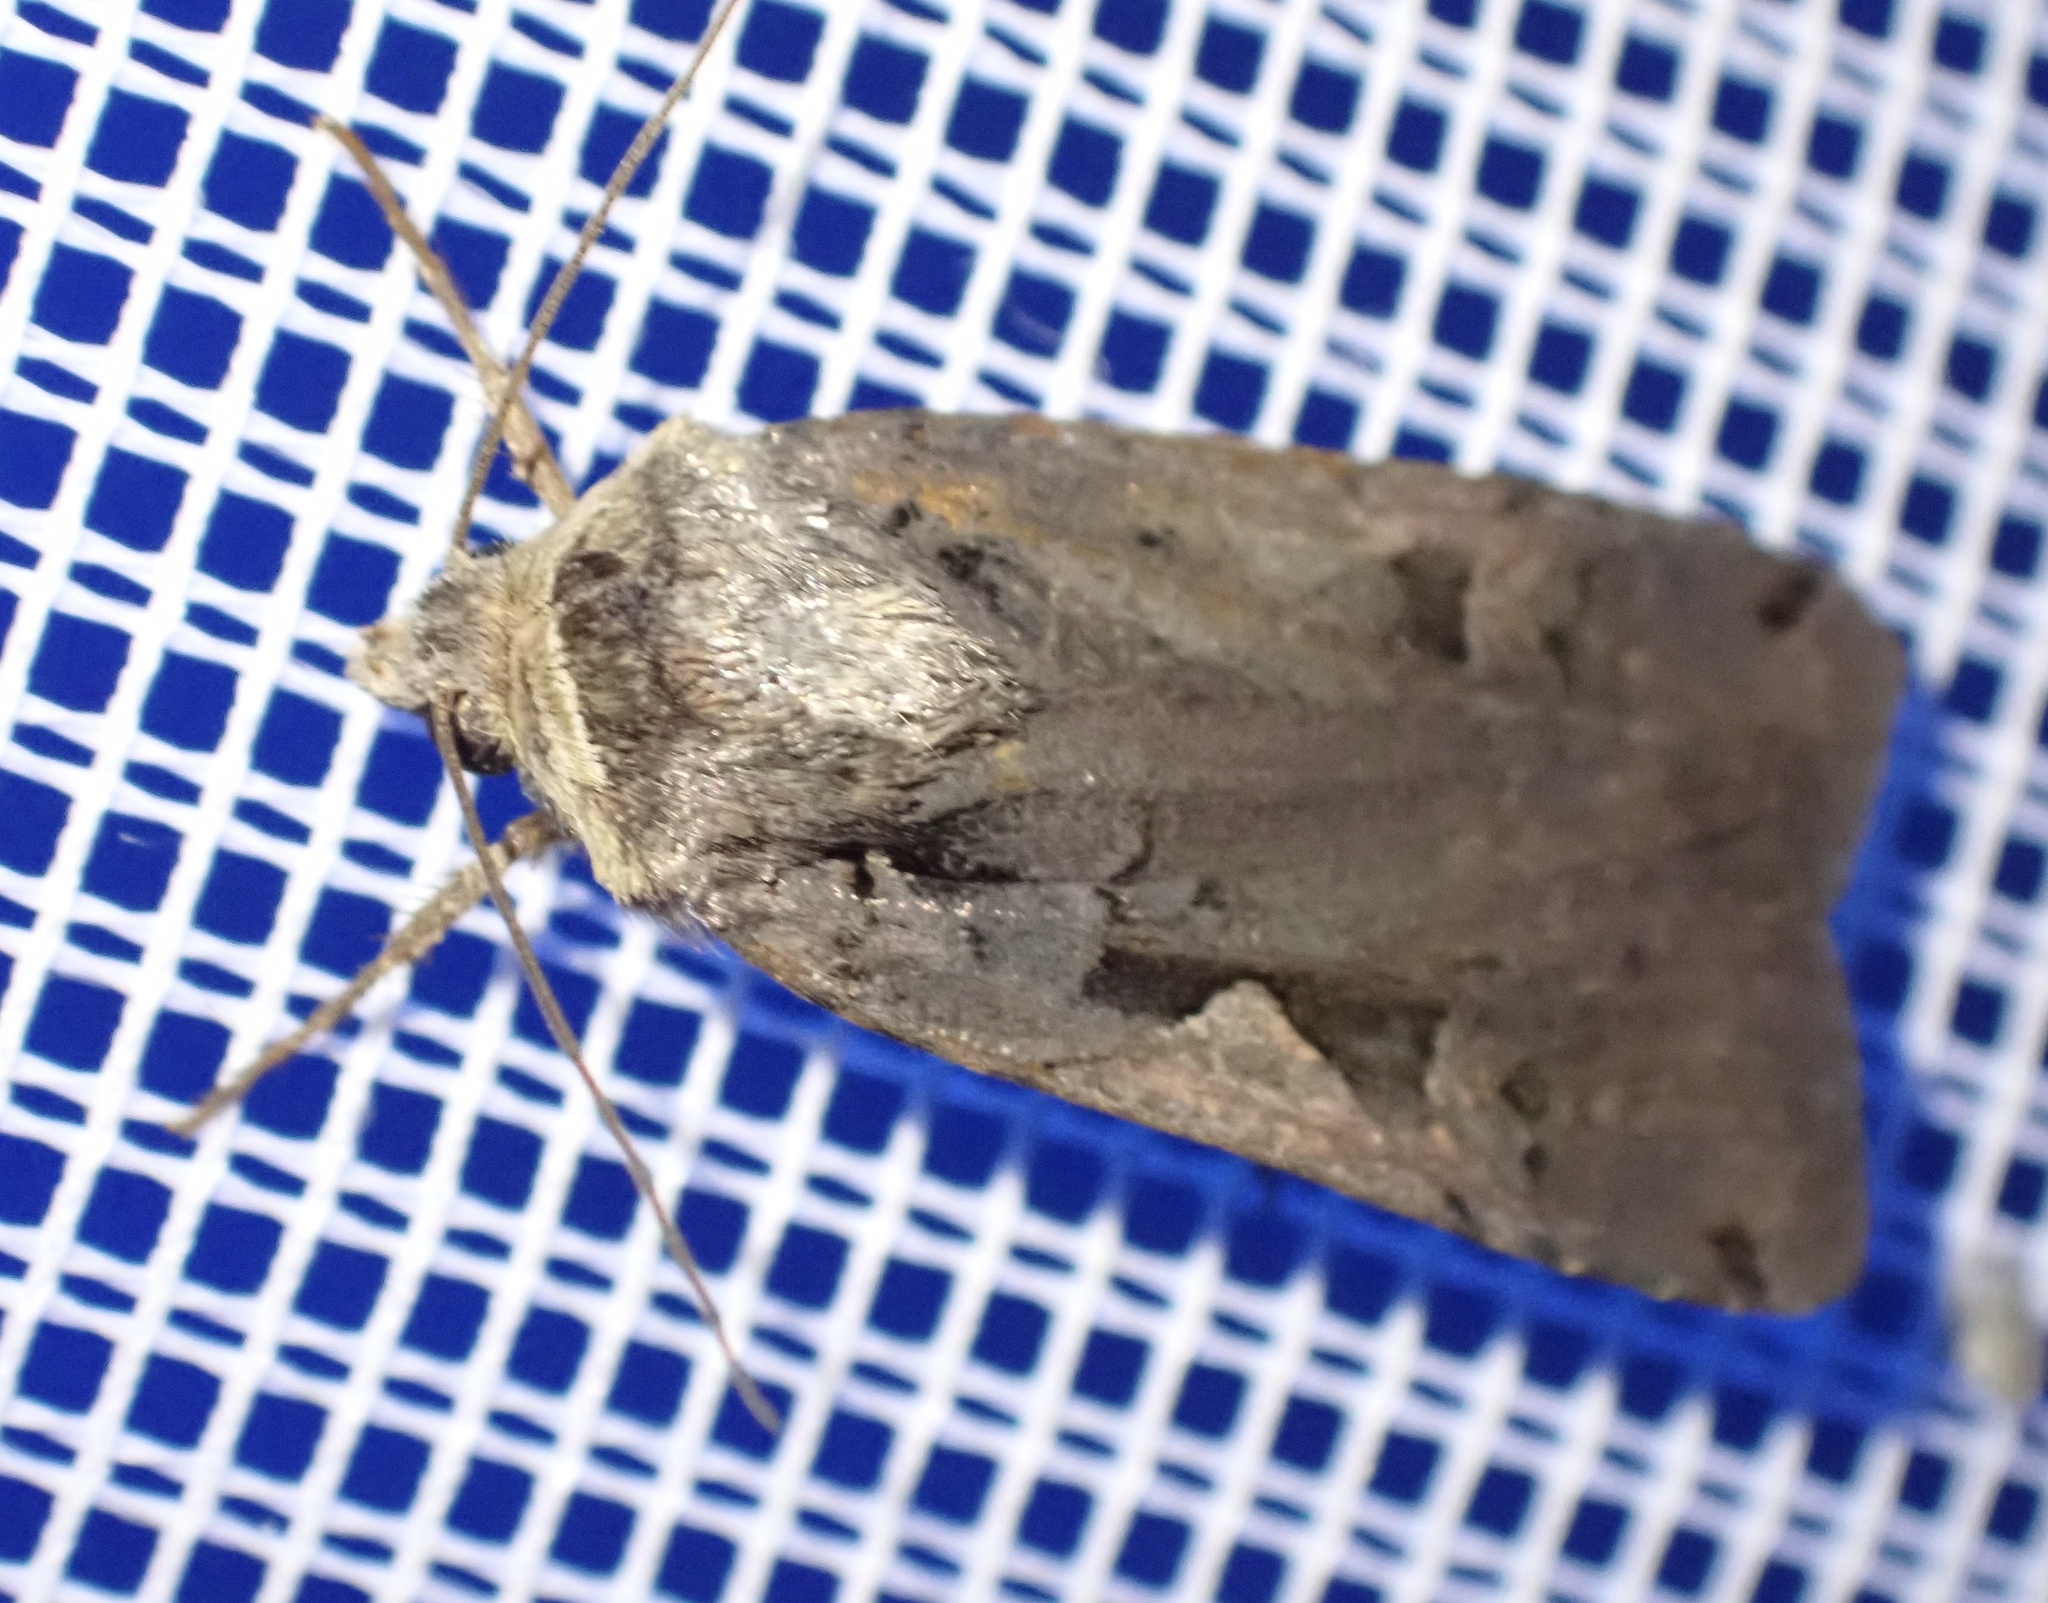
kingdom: Animalia
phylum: Arthropoda
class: Insecta
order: Lepidoptera
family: Noctuidae
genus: Xestia
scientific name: Xestia c-nigrum
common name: Setaceous hebrew character
